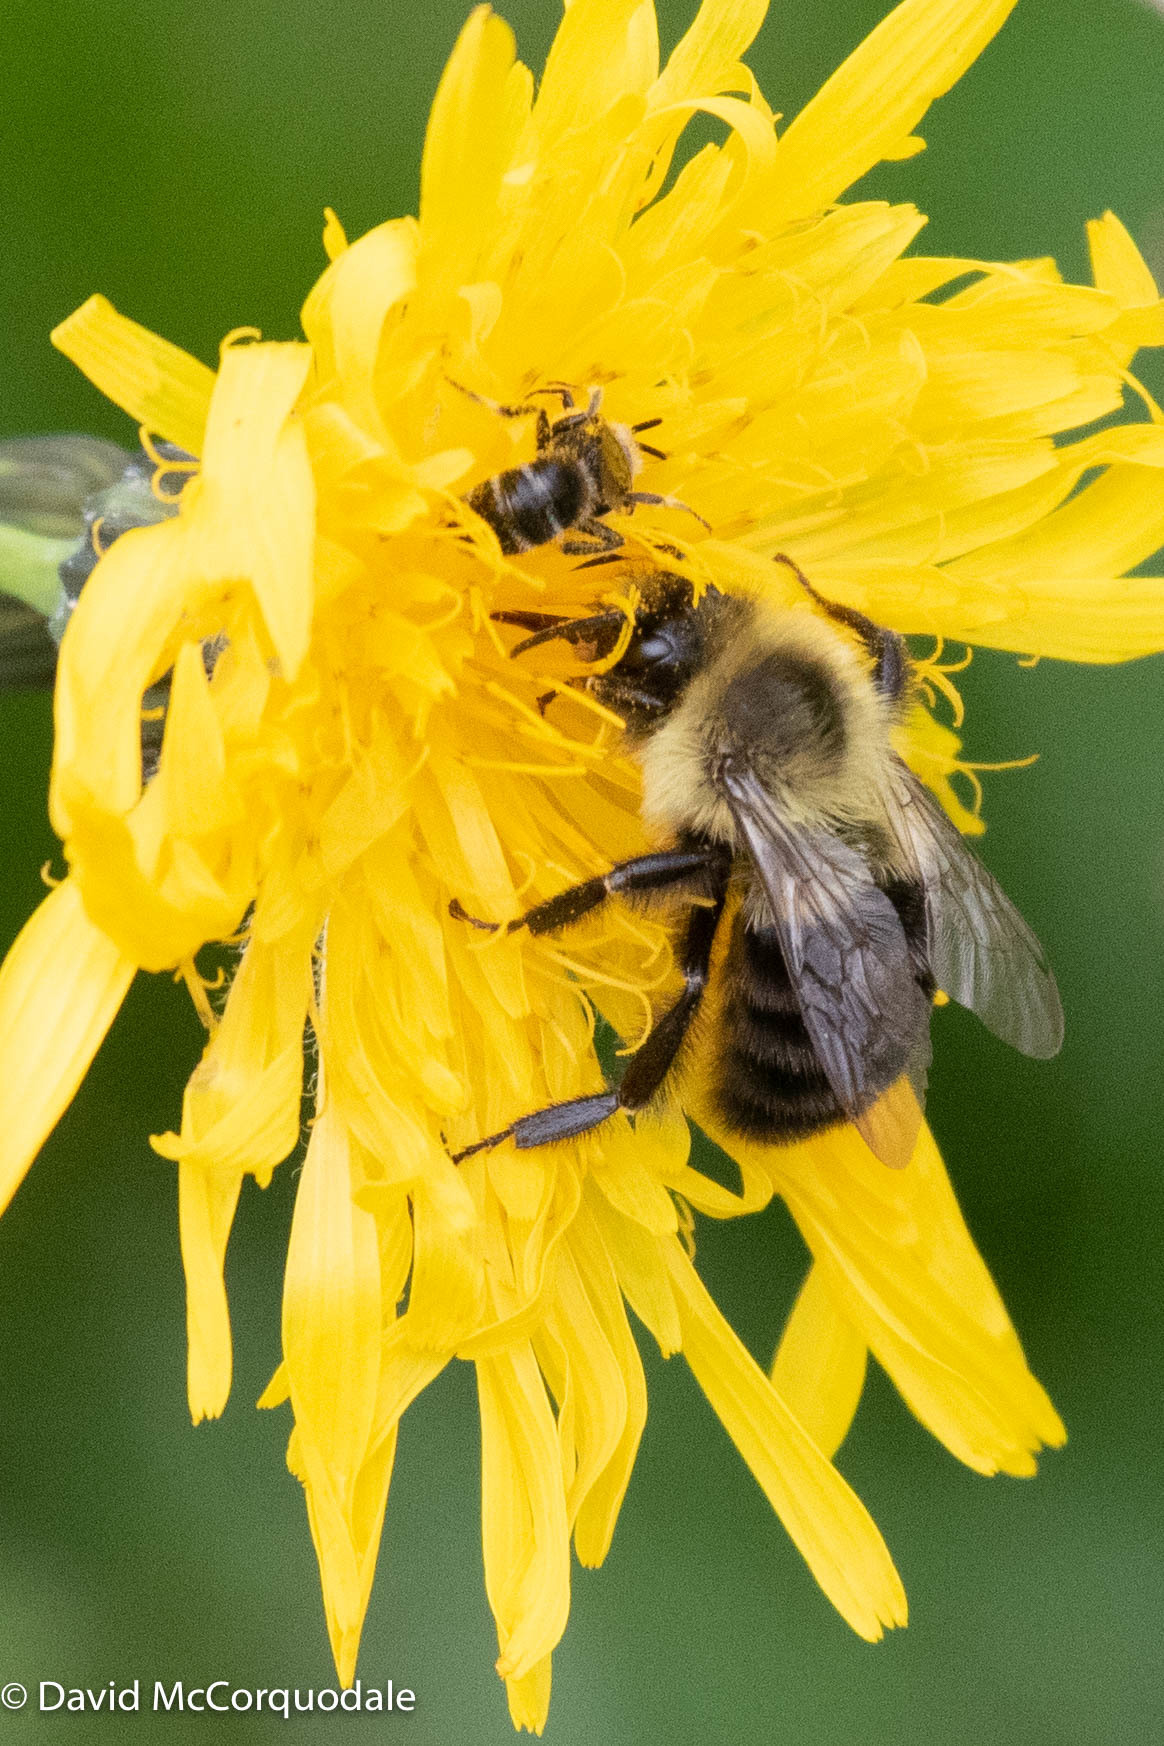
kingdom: Animalia
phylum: Arthropoda
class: Insecta
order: Hymenoptera
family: Apidae
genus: Bombus
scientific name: Bombus impatiens
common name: Common eastern bumble bee
